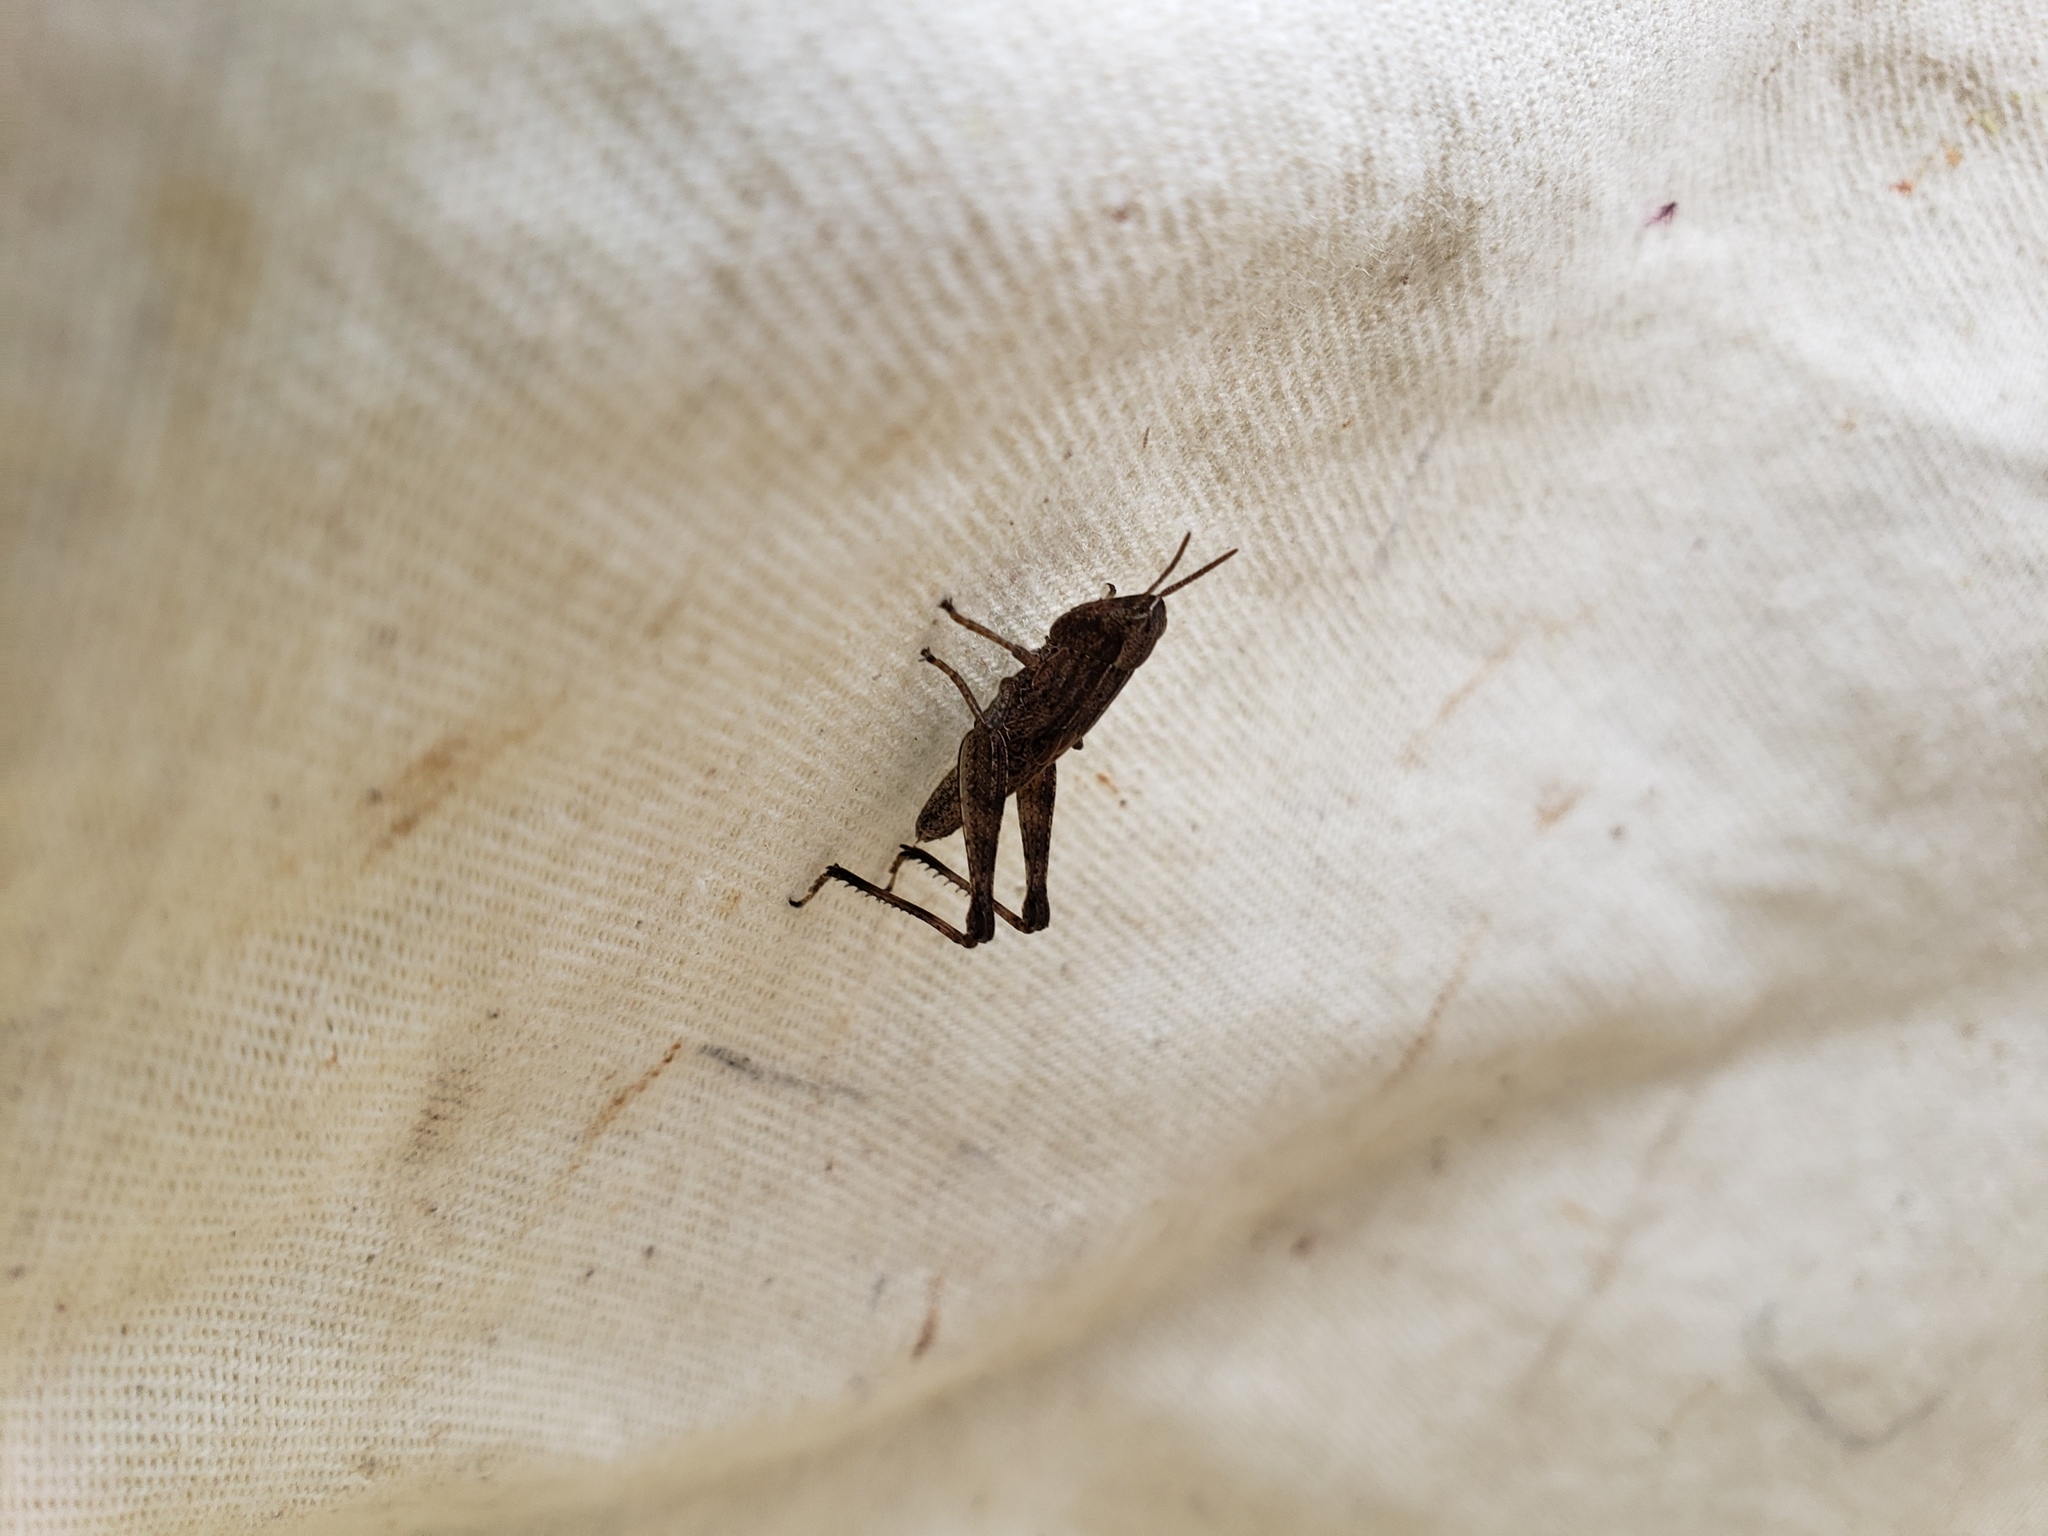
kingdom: Animalia
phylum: Arthropoda
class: Insecta
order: Orthoptera
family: Acrididae
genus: Dichromorpha
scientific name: Dichromorpha viridis
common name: Short-winged green grasshopper
